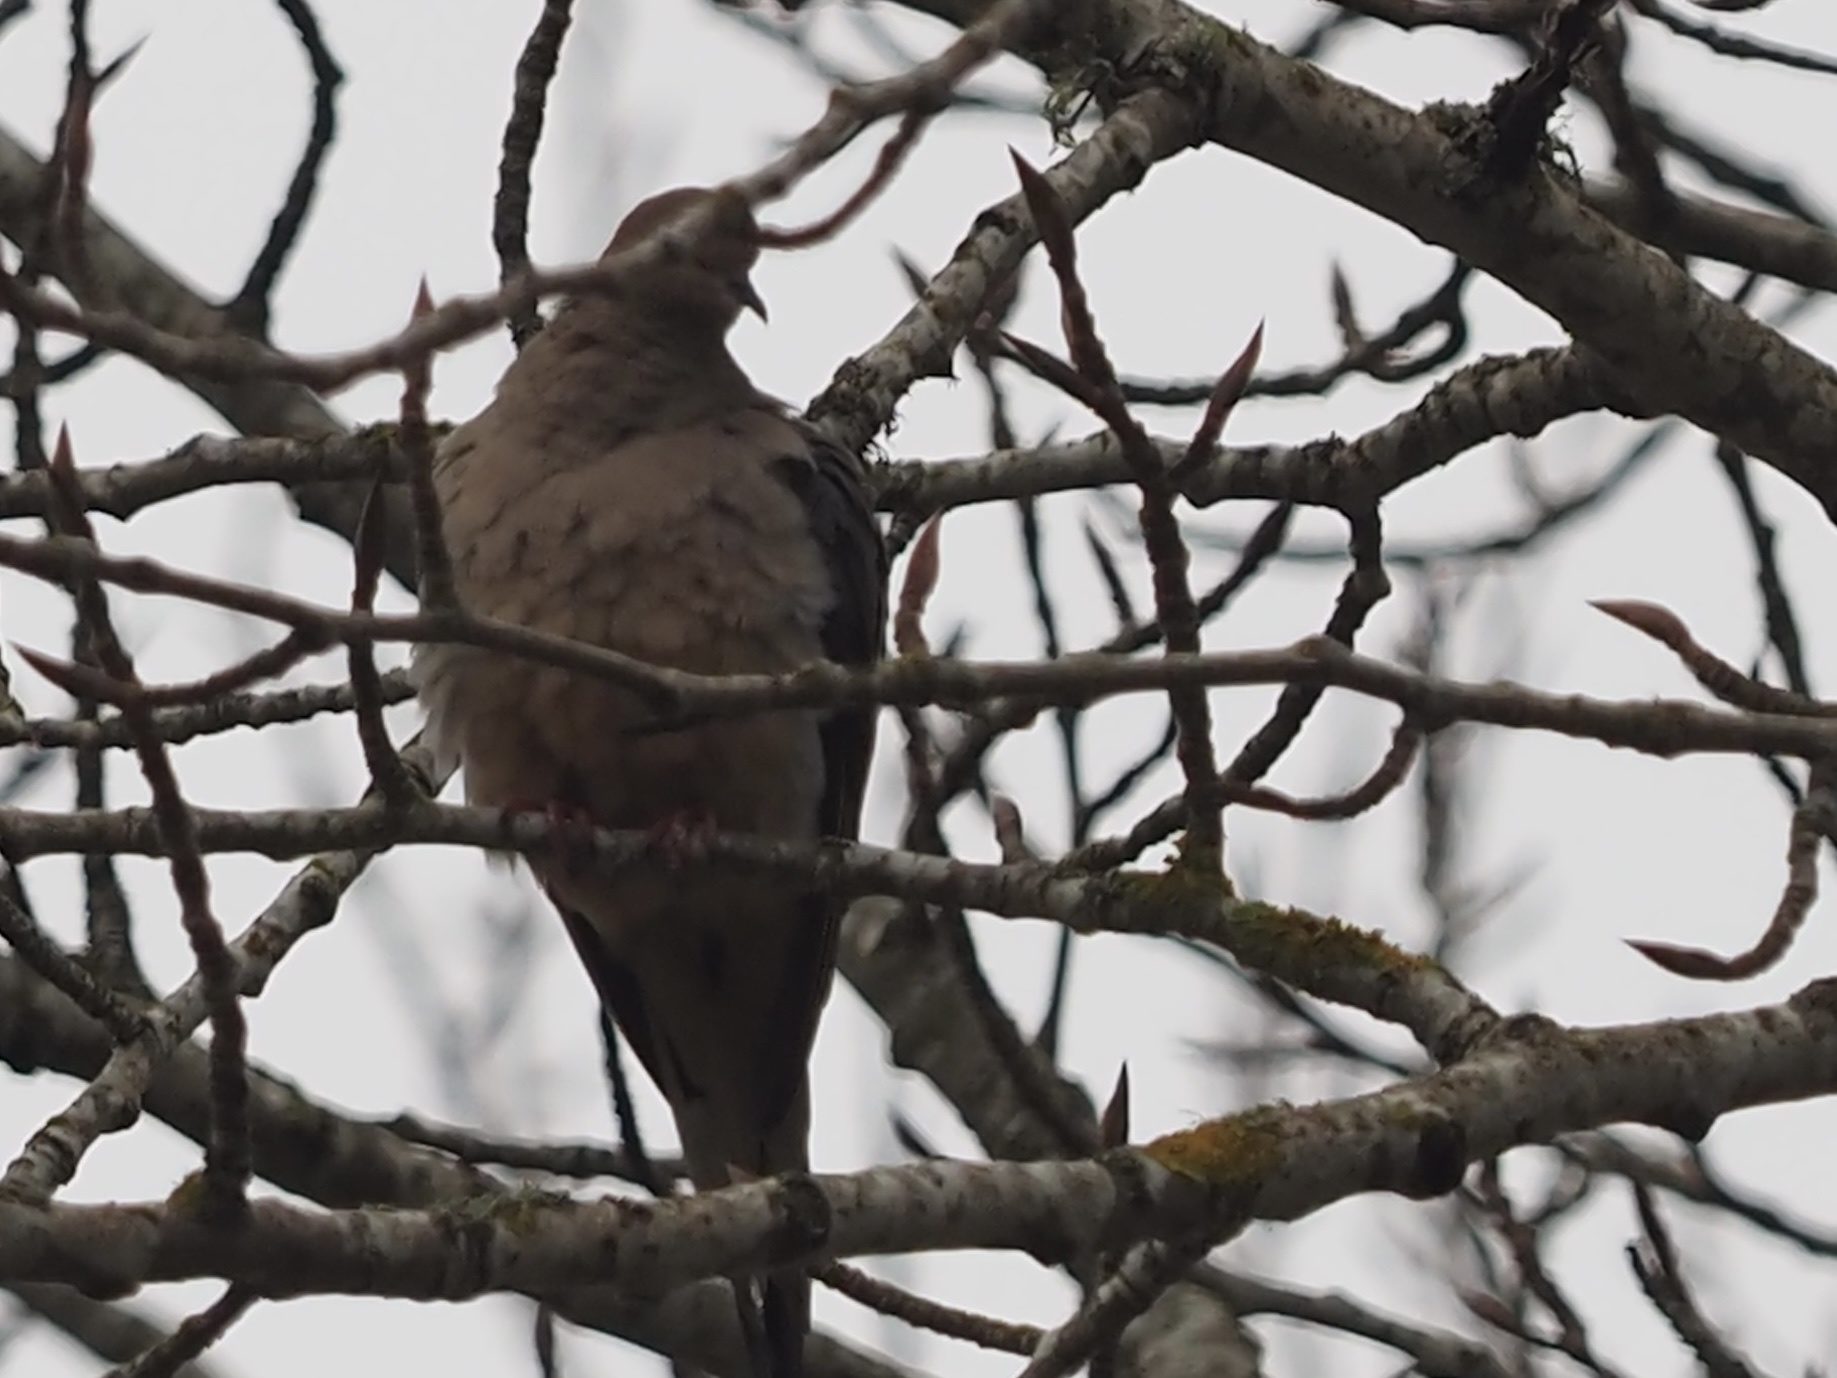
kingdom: Animalia
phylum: Chordata
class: Aves
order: Columbiformes
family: Columbidae
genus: Zenaida
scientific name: Zenaida macroura
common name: Mourning dove
